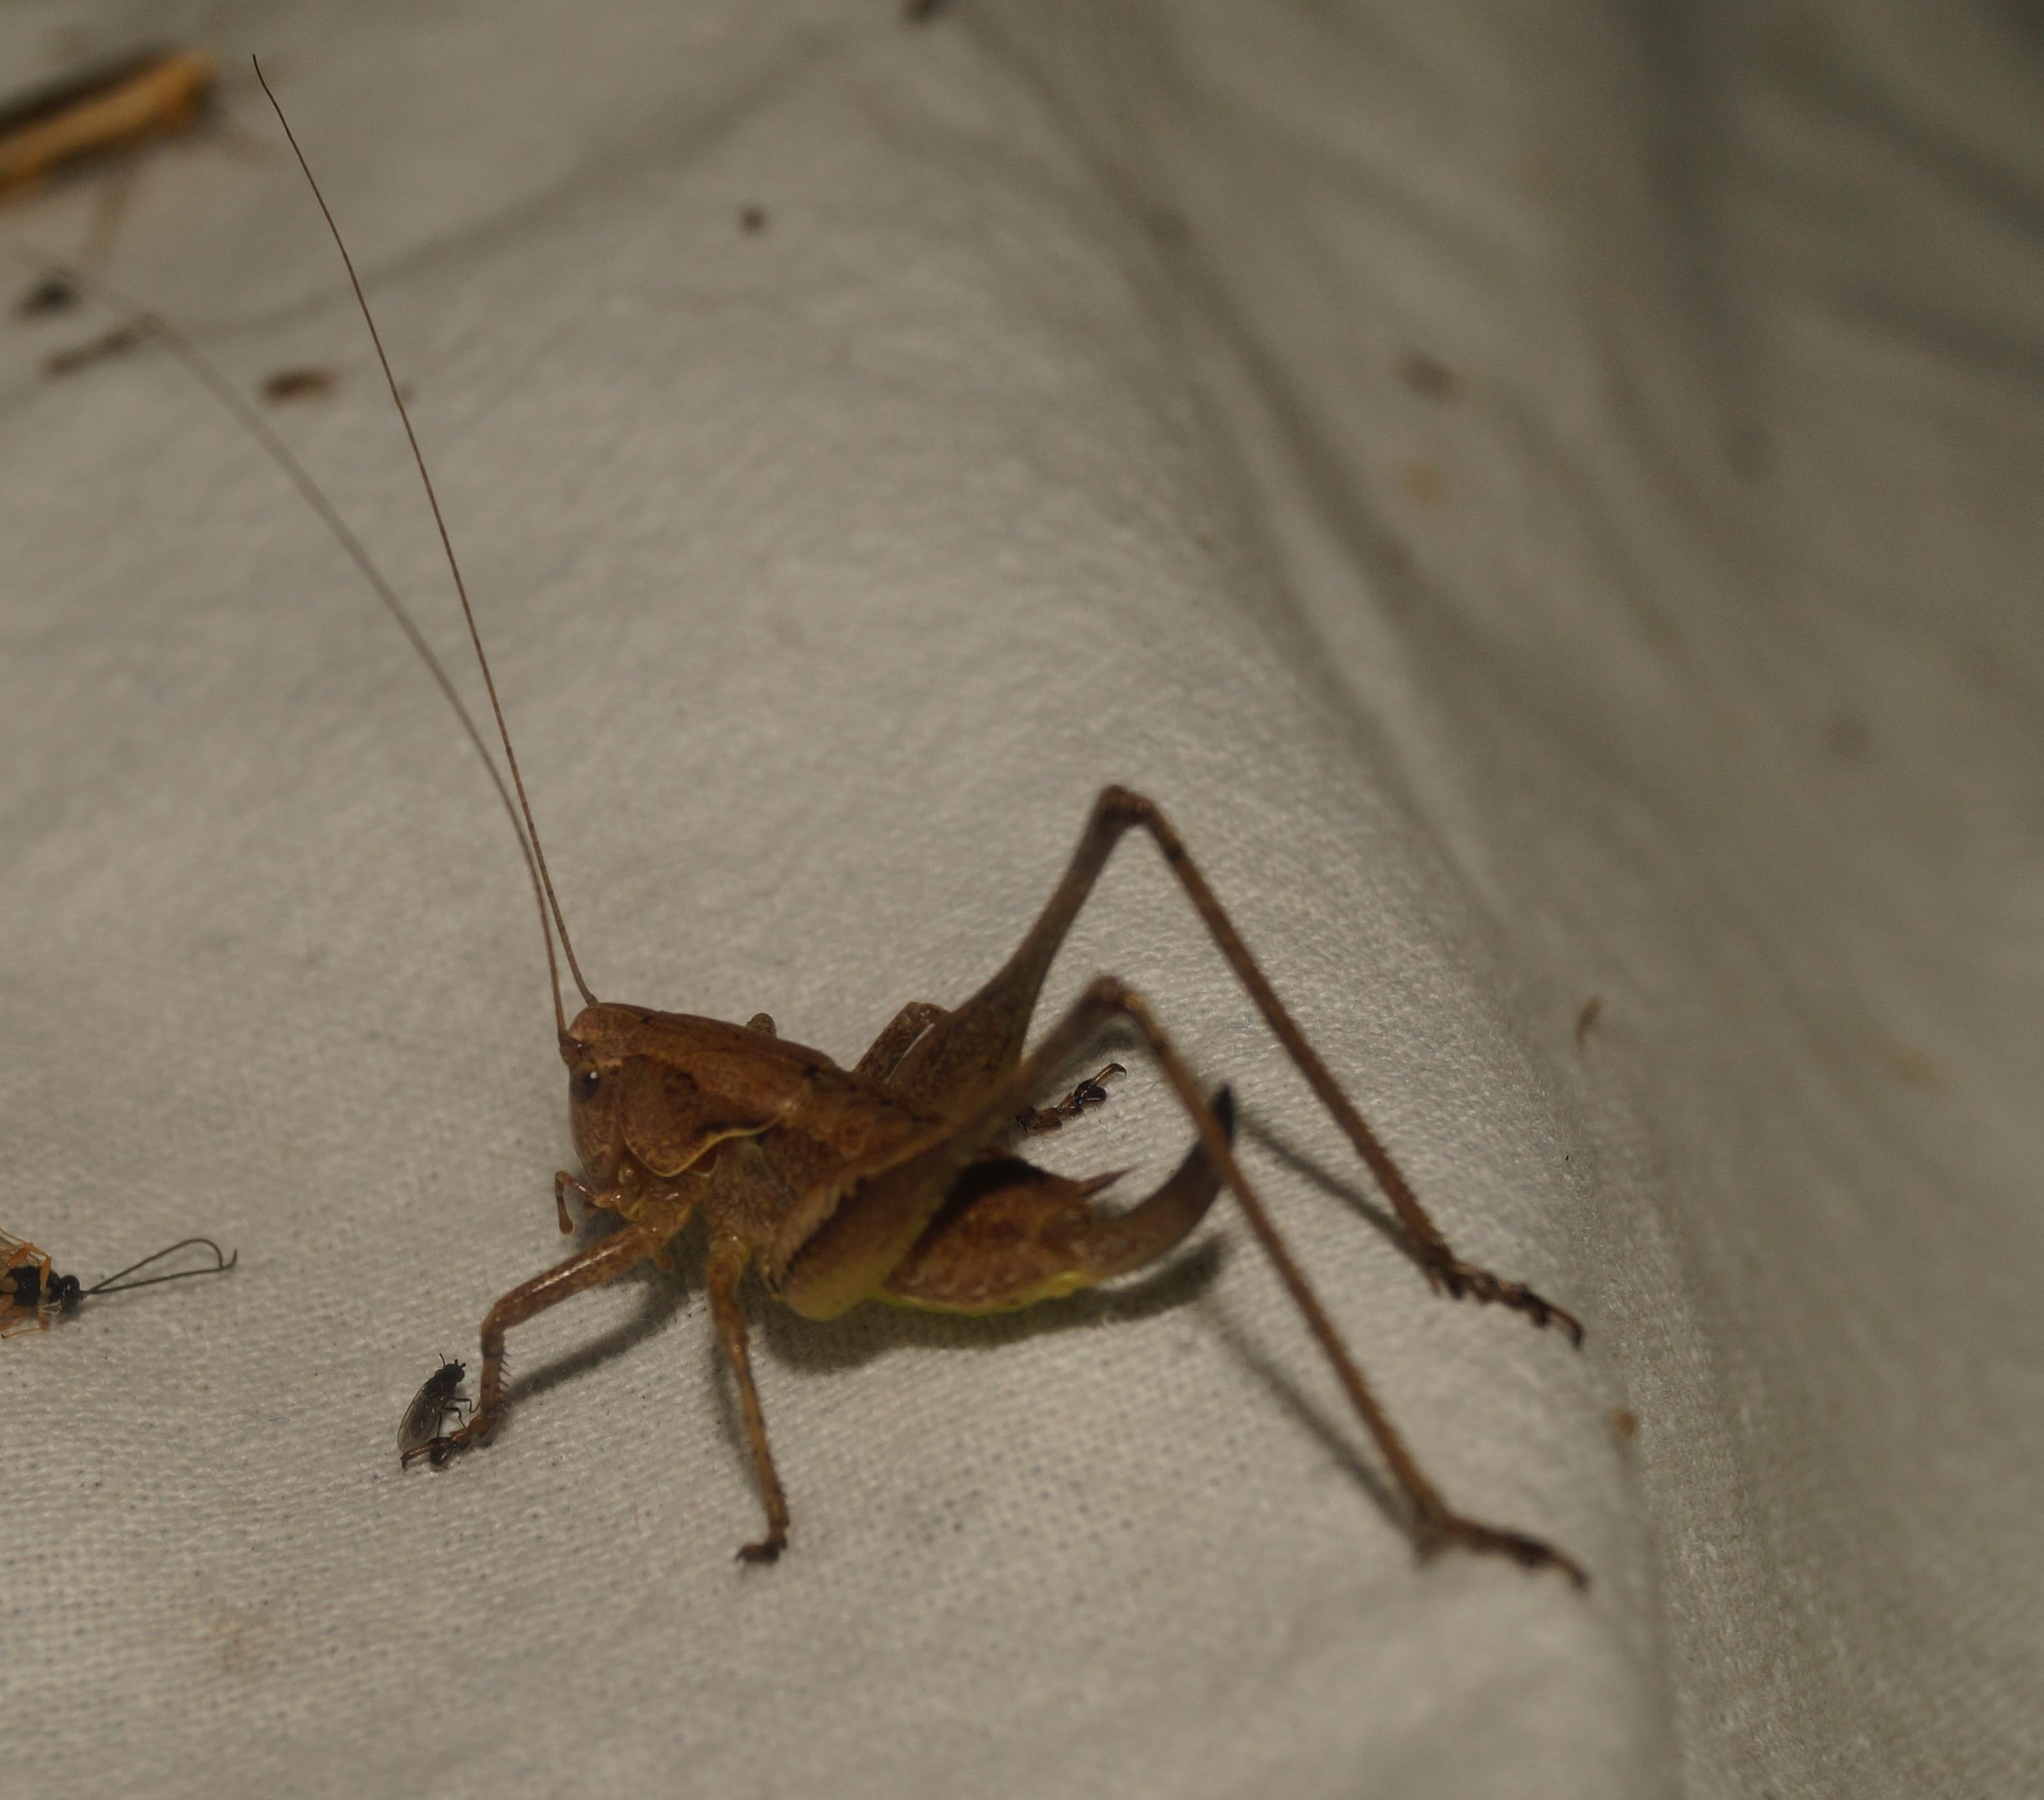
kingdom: Animalia
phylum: Arthropoda
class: Insecta
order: Orthoptera
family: Tettigoniidae
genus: Pholidoptera
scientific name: Pholidoptera griseoaptera
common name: Dark bush-cricket
